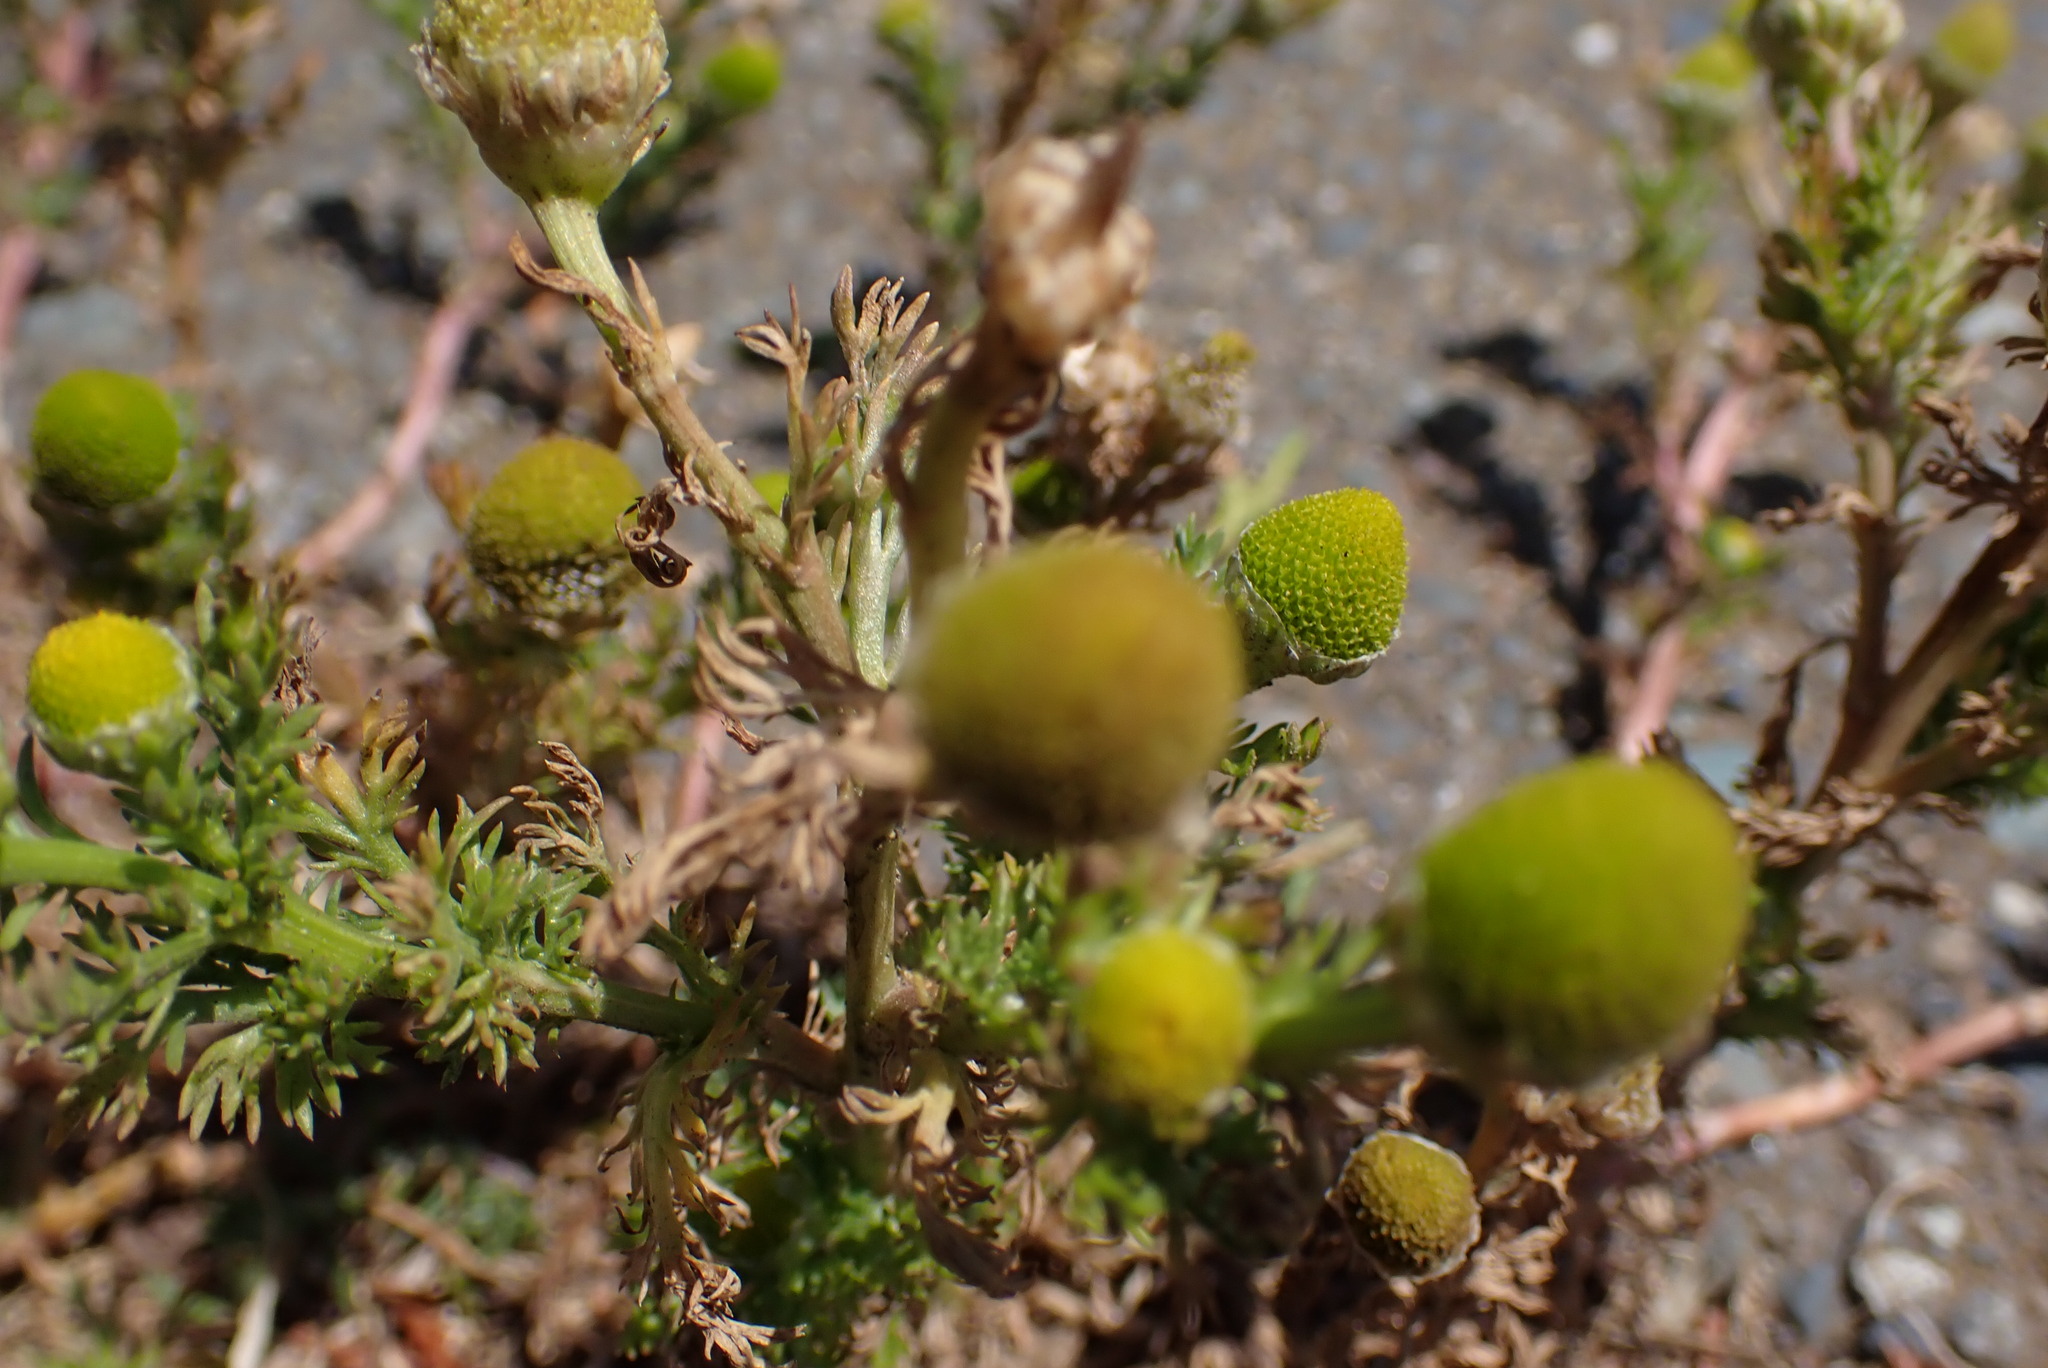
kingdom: Plantae
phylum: Tracheophyta
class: Magnoliopsida
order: Asterales
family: Asteraceae
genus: Matricaria
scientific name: Matricaria discoidea
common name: Disc mayweed
